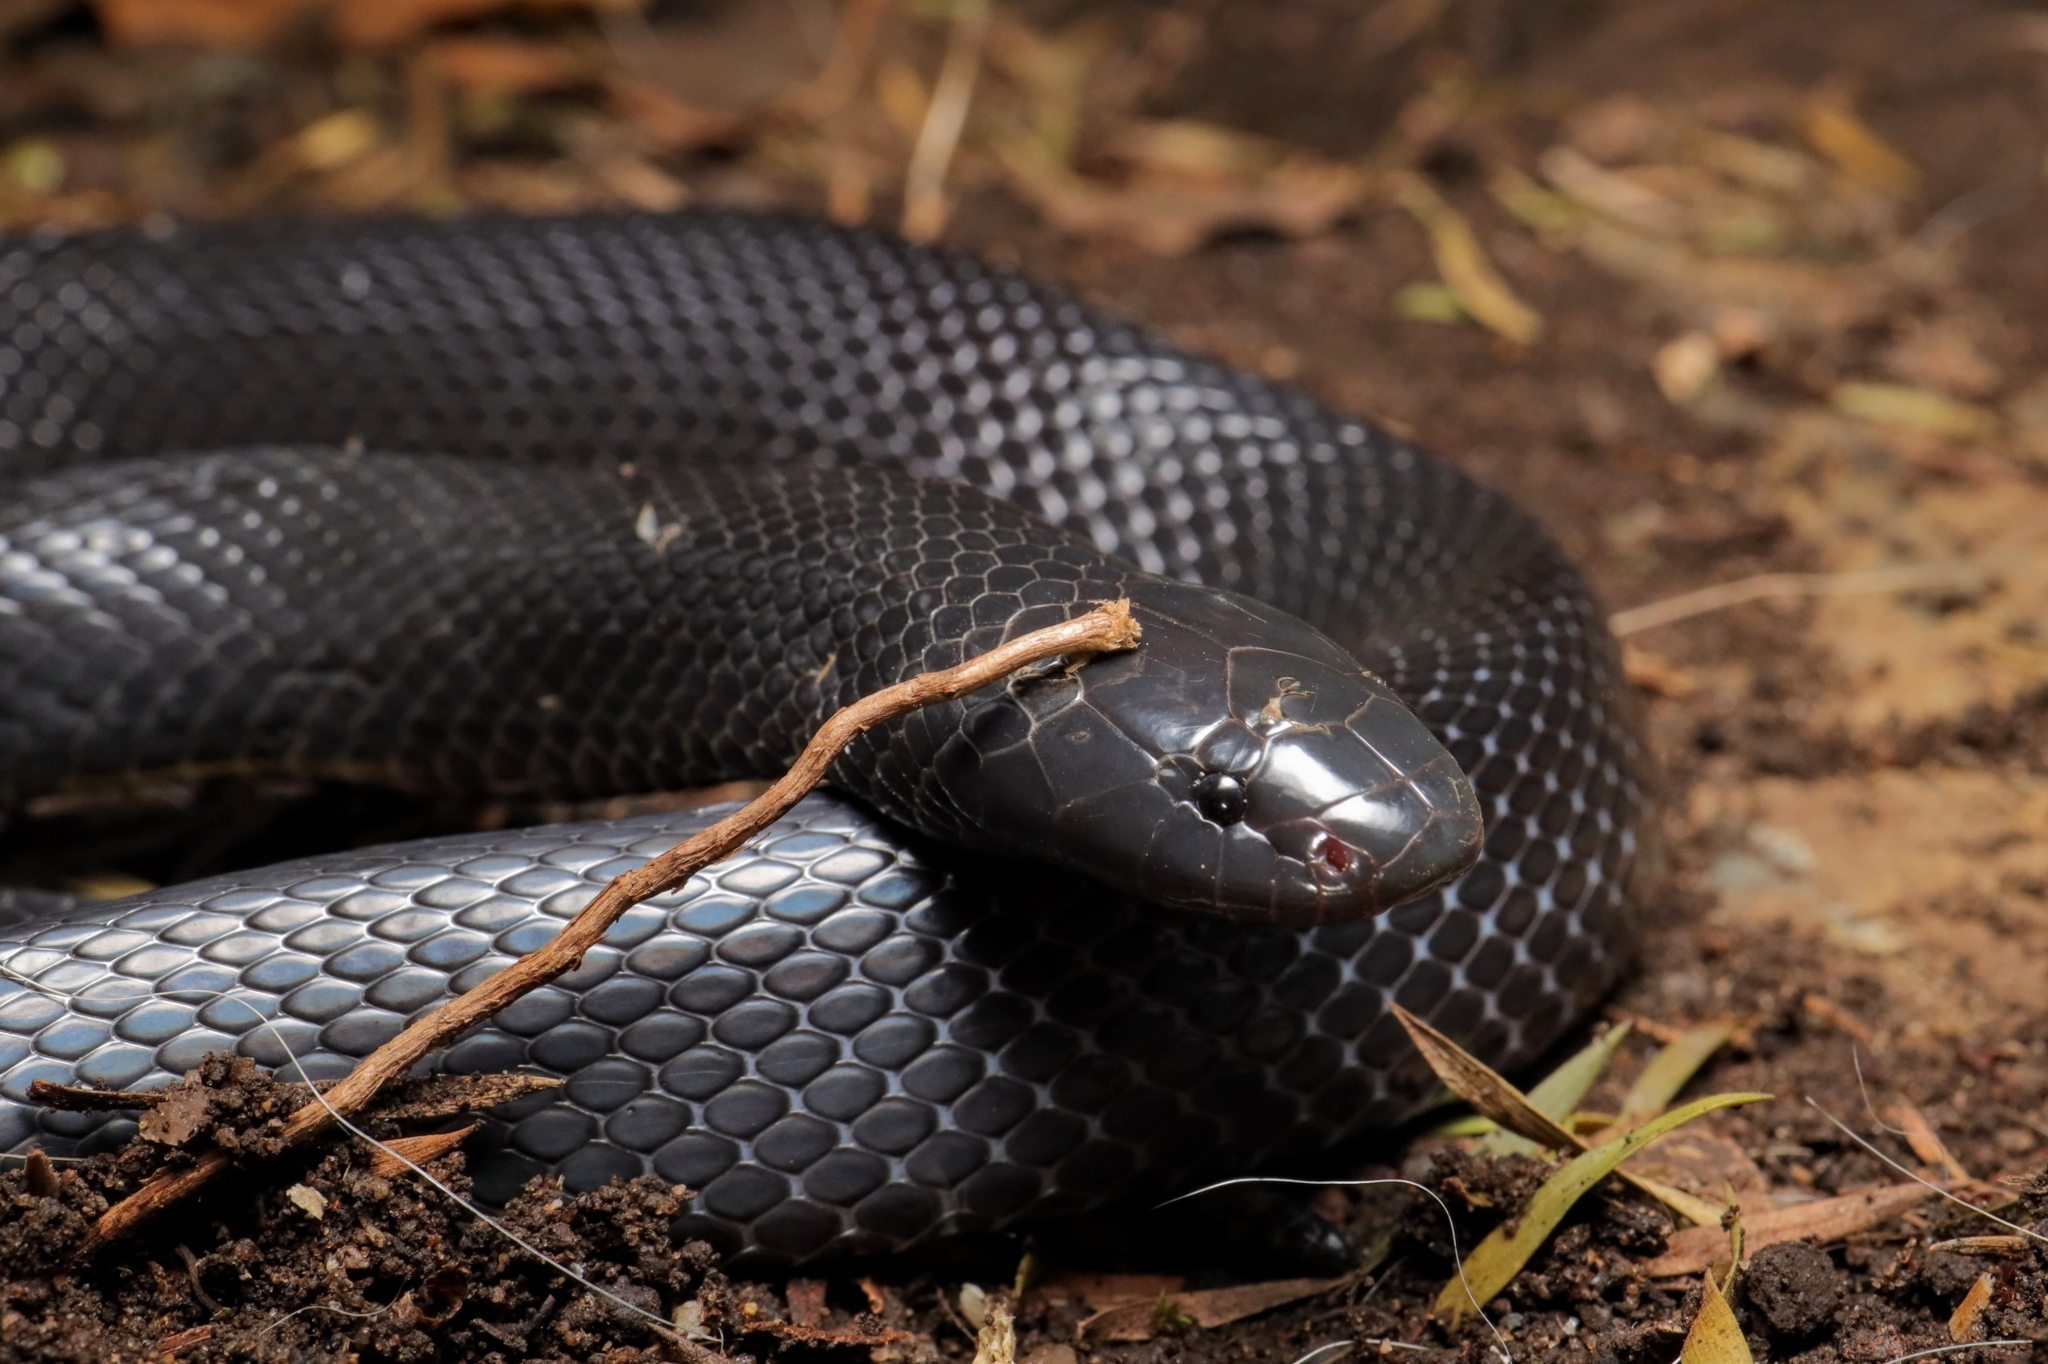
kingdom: Animalia
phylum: Chordata
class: Squamata
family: Atractaspididae
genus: Macrelaps
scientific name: Macrelaps microlepidotus
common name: Kwazulu-natal black snake
